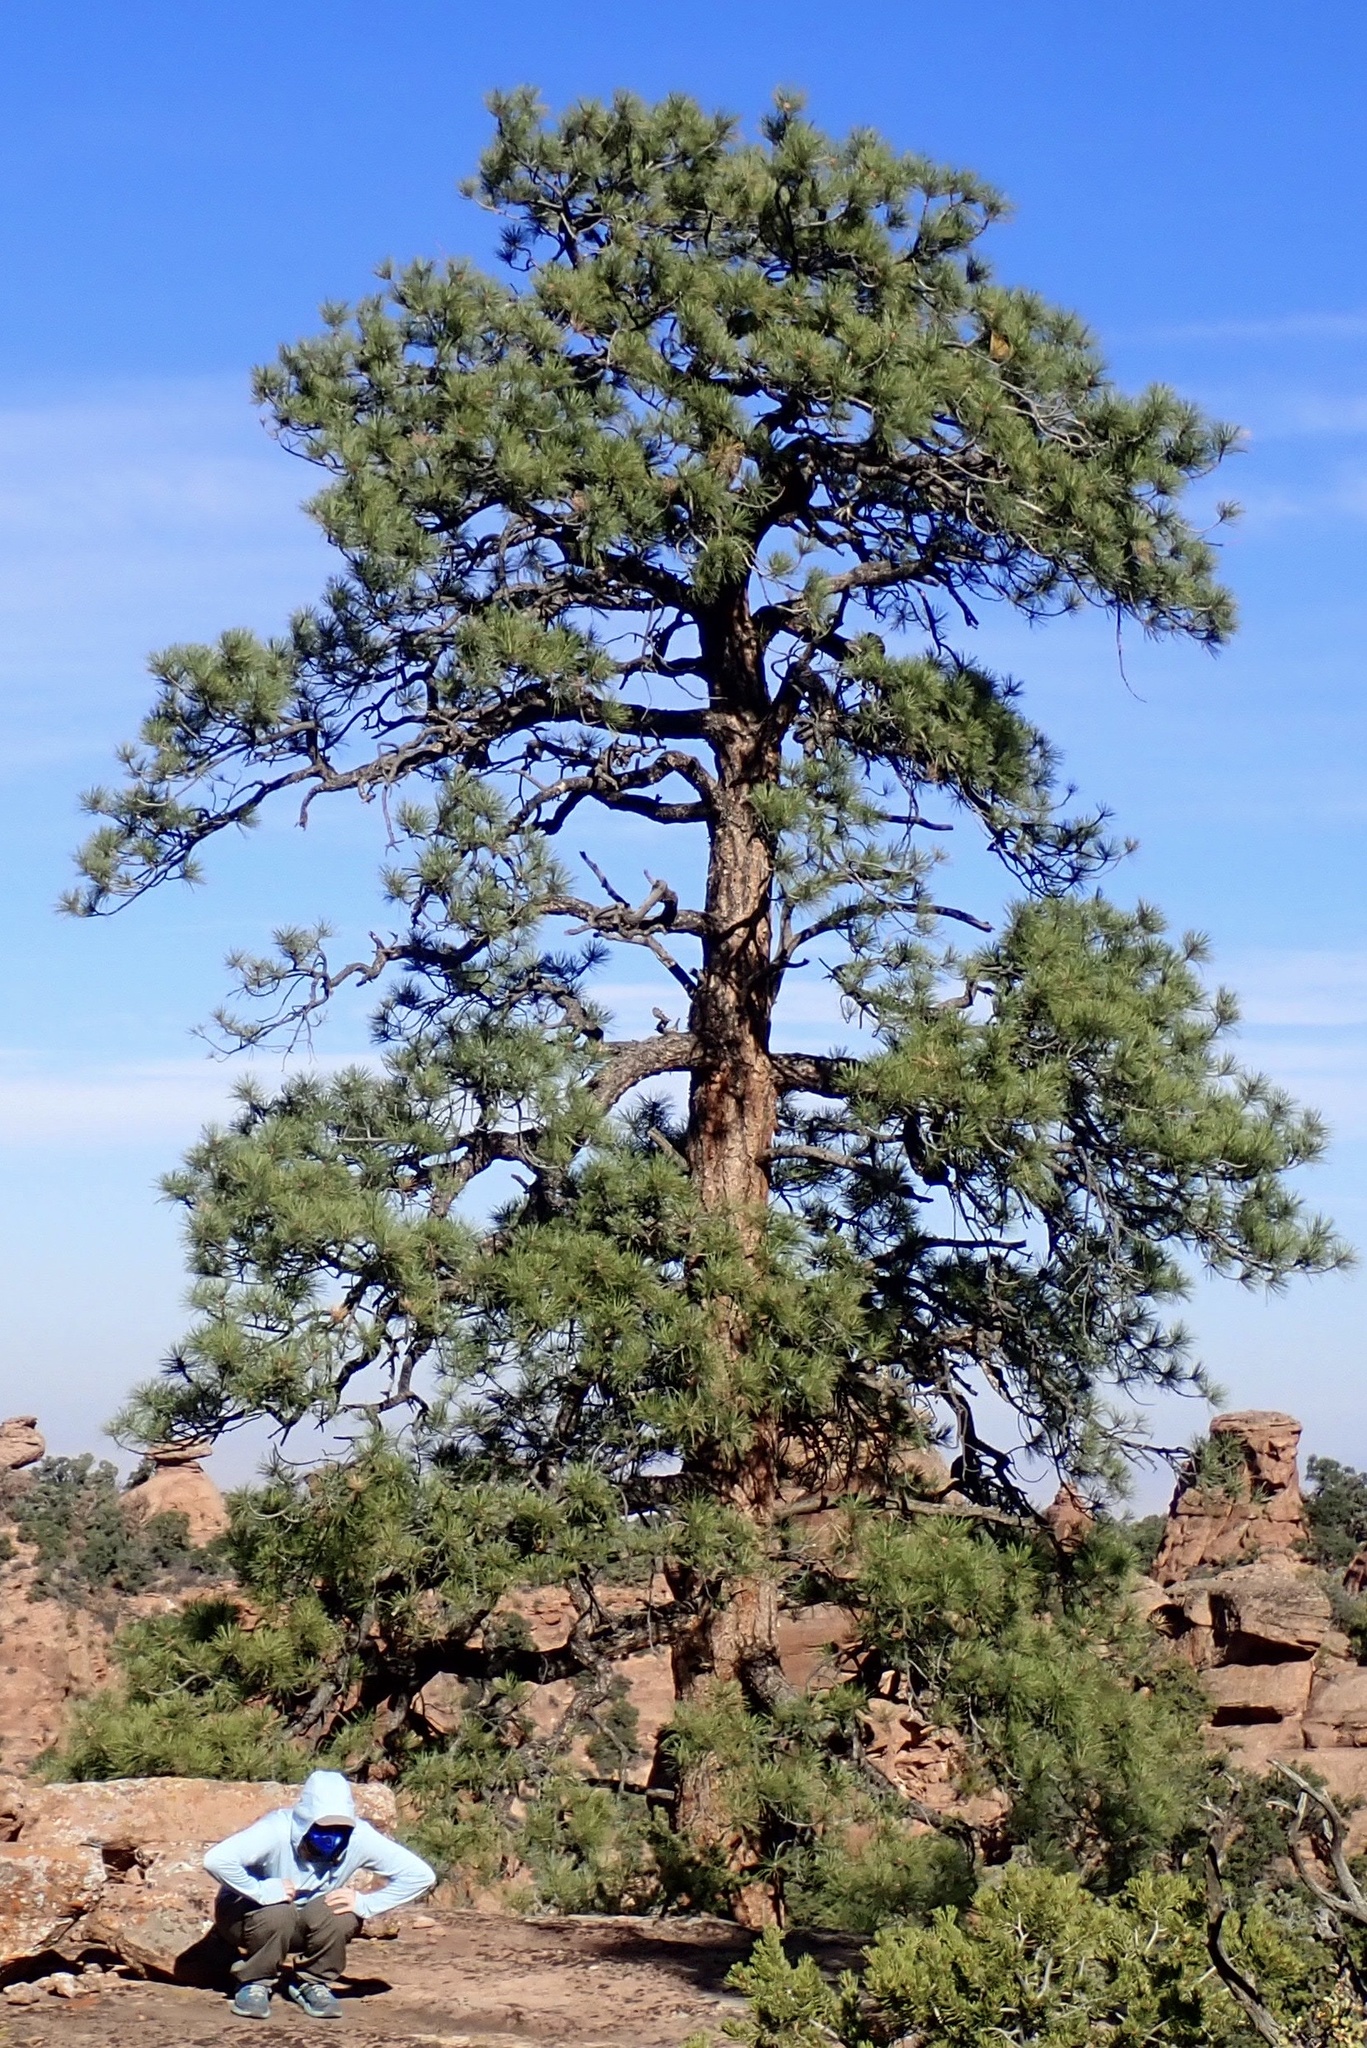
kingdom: Plantae
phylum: Tracheophyta
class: Pinopsida
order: Pinales
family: Pinaceae
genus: Pinus
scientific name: Pinus ponderosa
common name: Western yellow-pine
